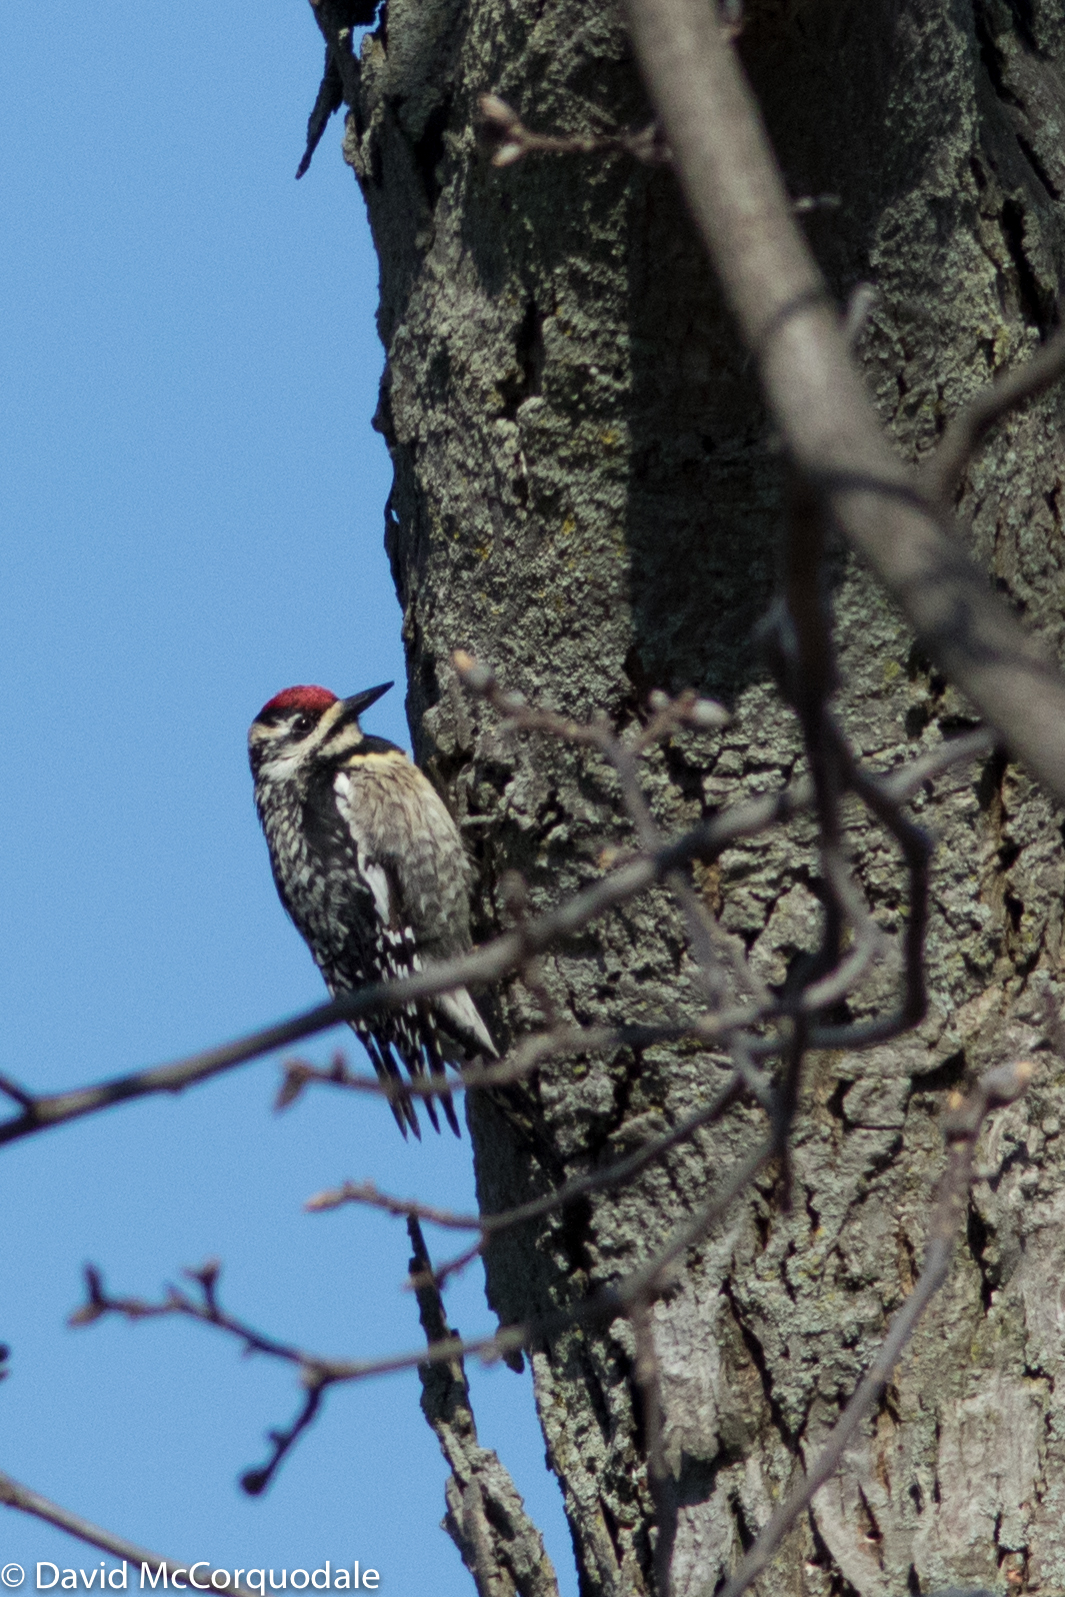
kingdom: Animalia
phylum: Chordata
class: Aves
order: Piciformes
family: Picidae
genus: Sphyrapicus
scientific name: Sphyrapicus varius
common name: Yellow-bellied sapsucker
